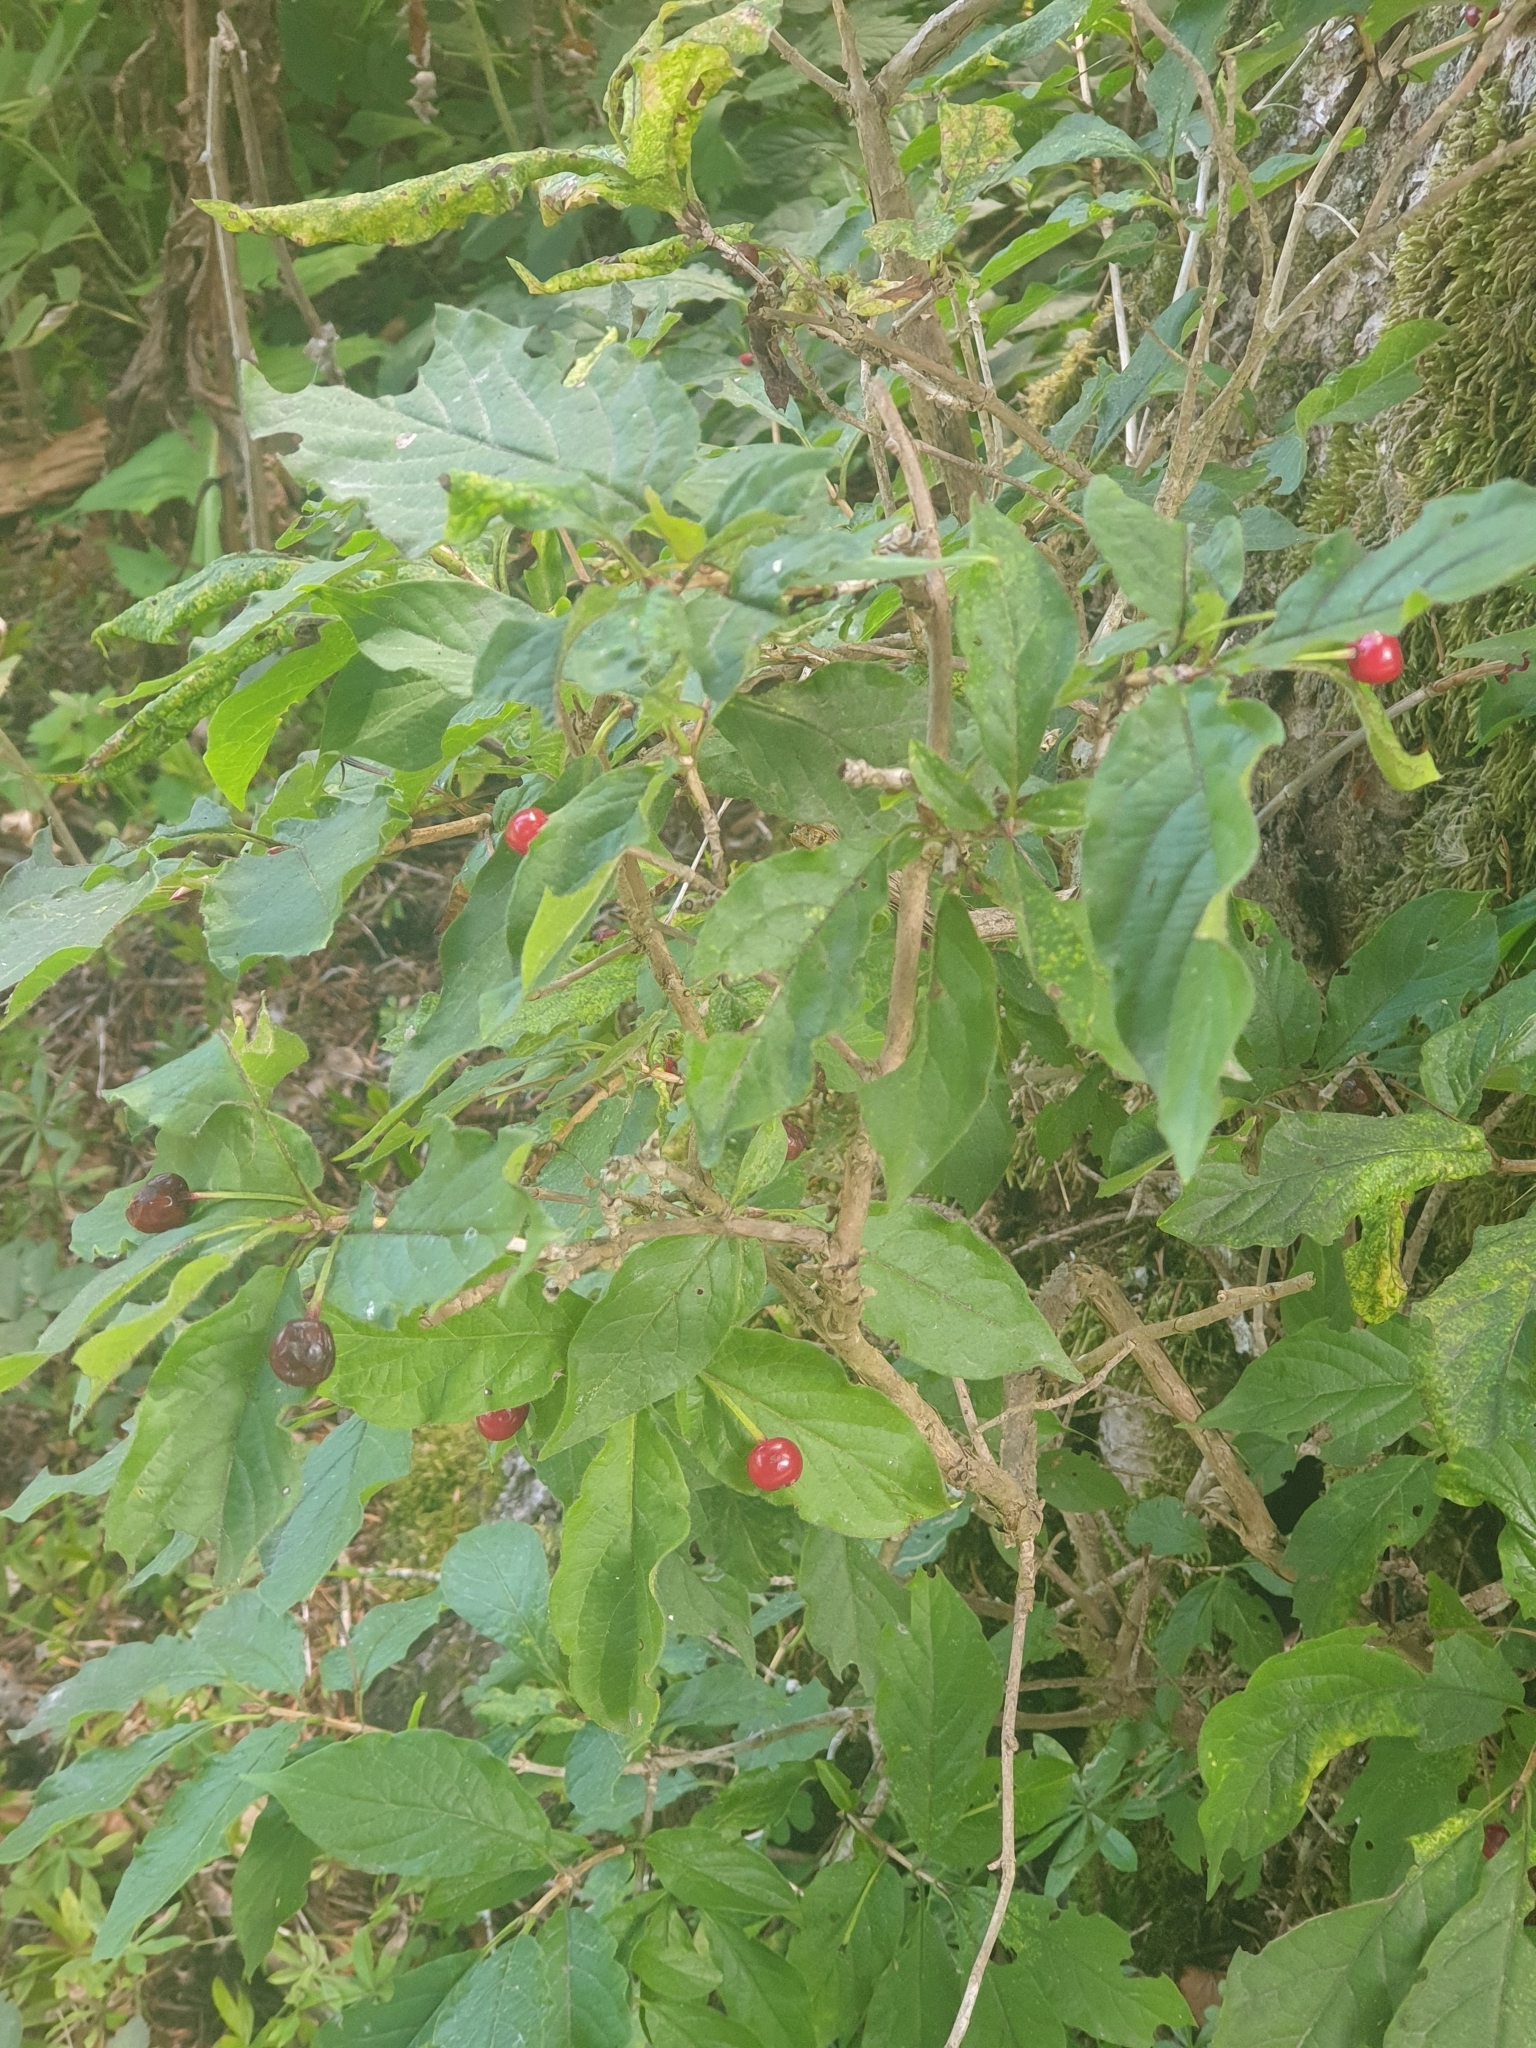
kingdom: Plantae
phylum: Tracheophyta
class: Magnoliopsida
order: Dipsacales
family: Caprifoliaceae
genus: Lonicera
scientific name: Lonicera alpigena
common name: Alpine honeysuckle
